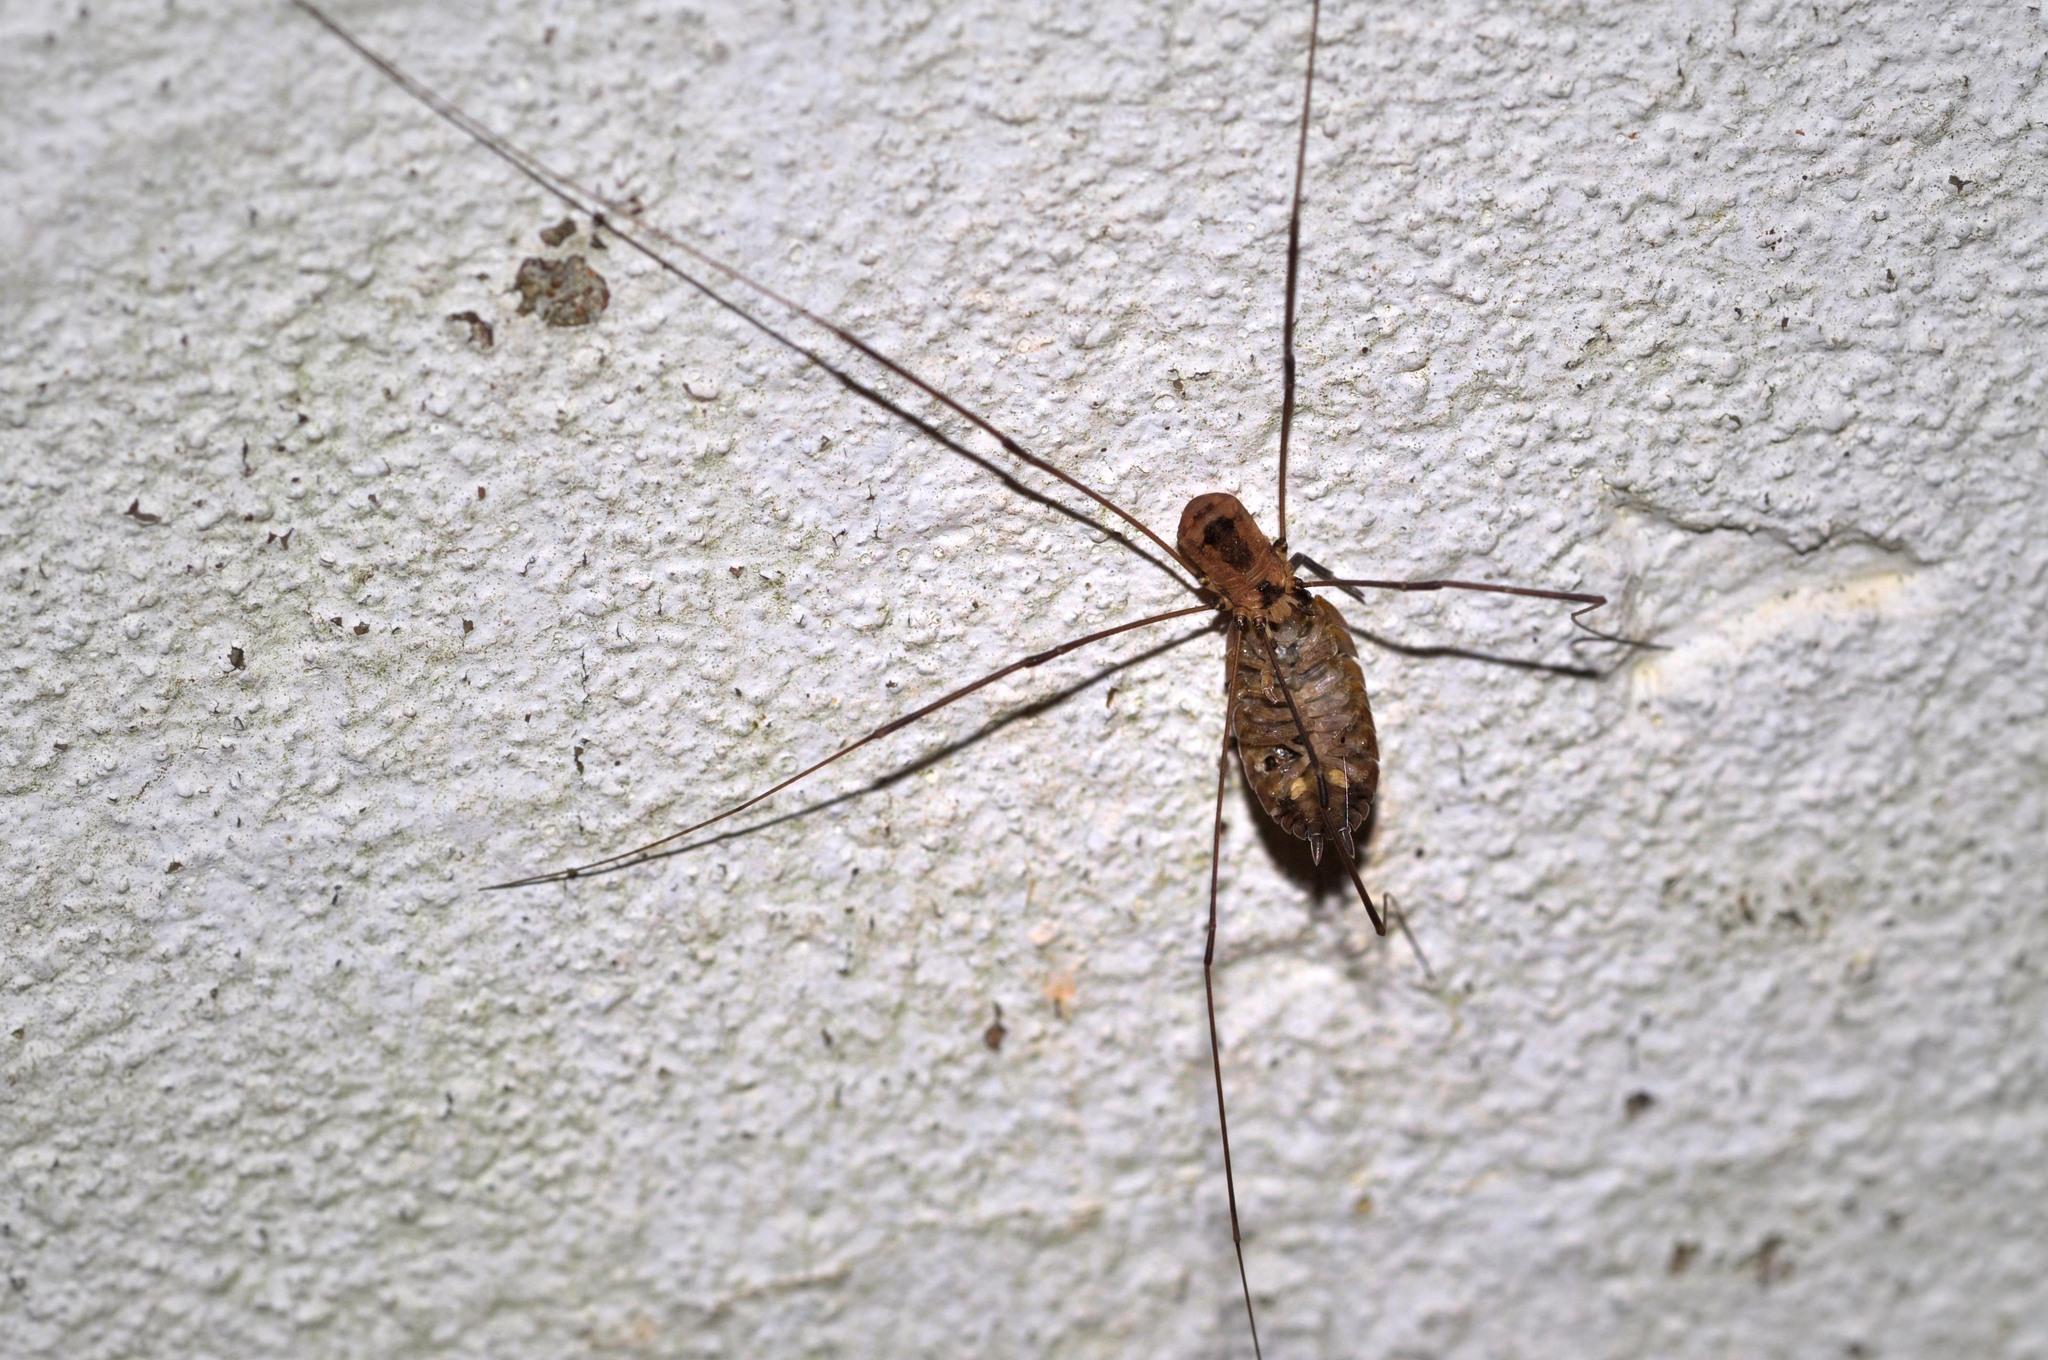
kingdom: Animalia
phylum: Arthropoda
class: Arachnida
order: Opiliones
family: Sclerosomatidae
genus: Leiobunum
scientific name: Leiobunum rotundum
